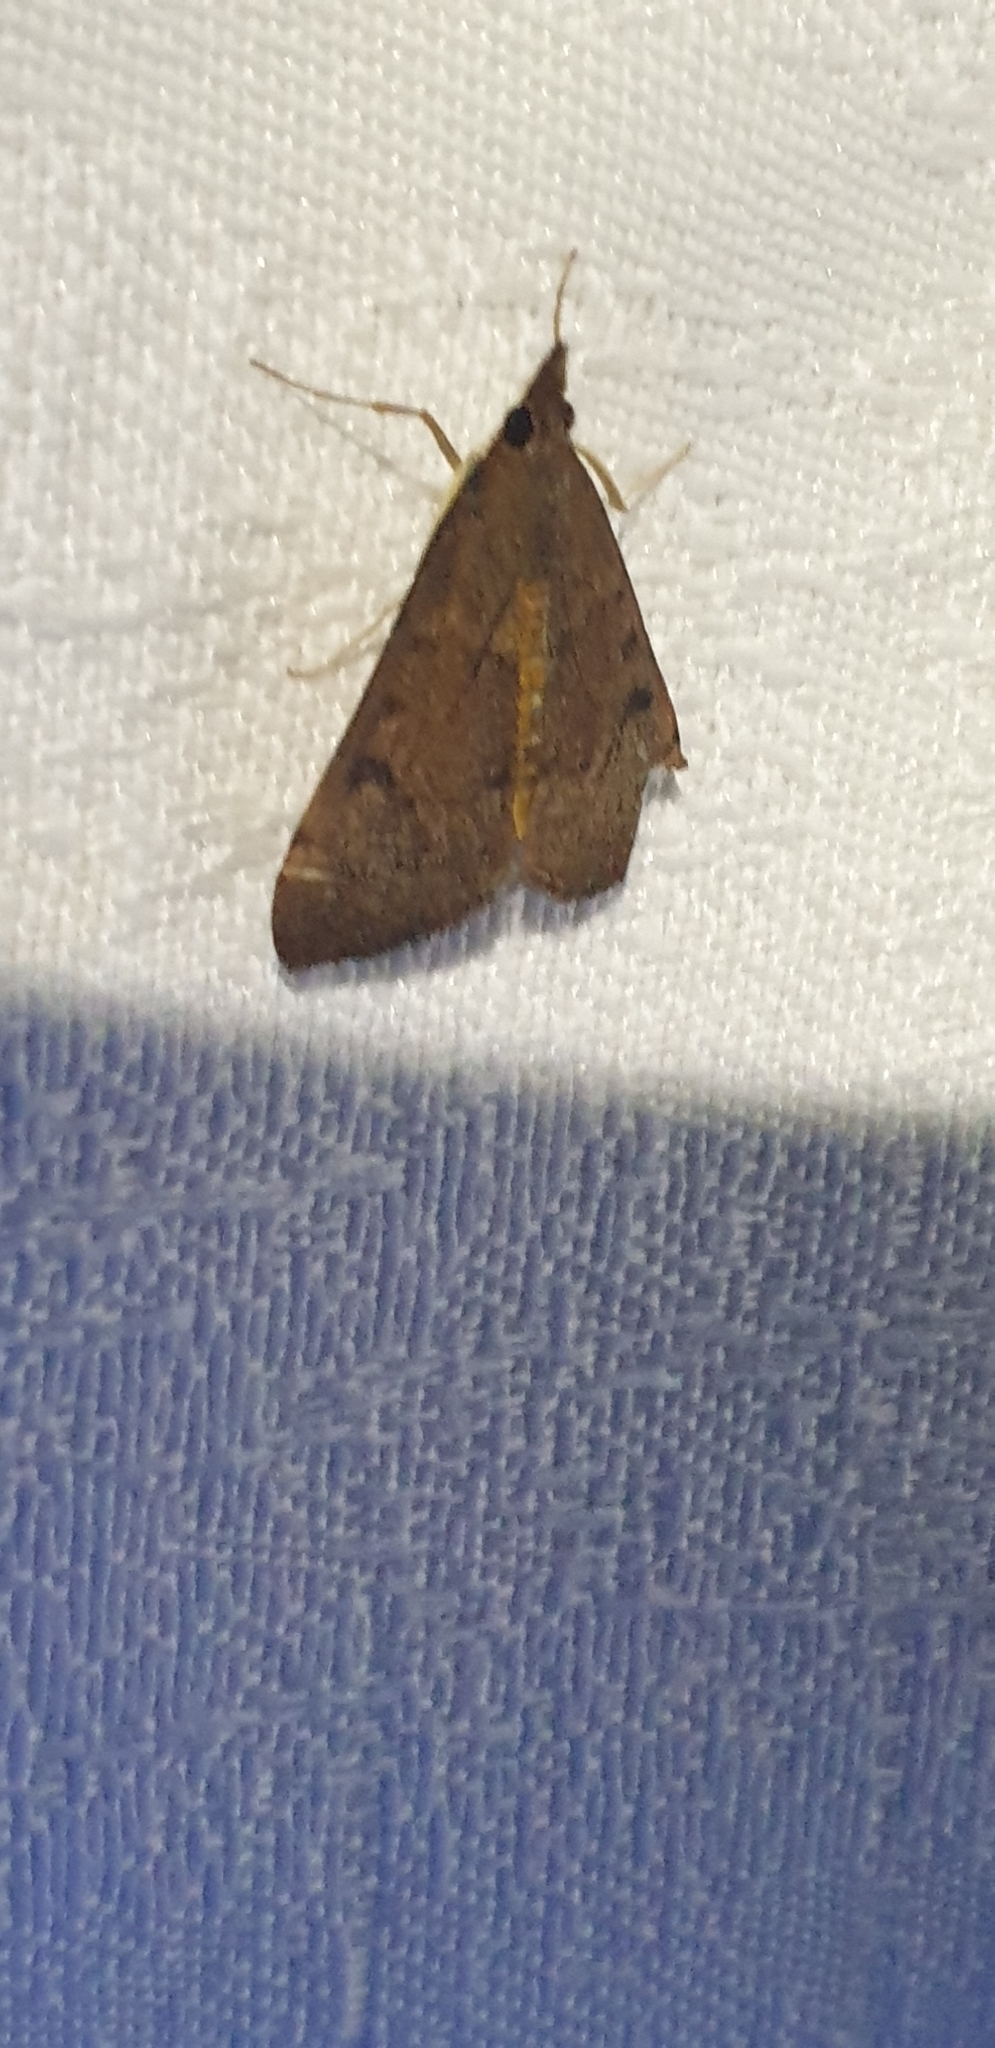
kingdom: Animalia
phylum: Arthropoda
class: Insecta
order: Lepidoptera
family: Crambidae
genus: Uresiphita
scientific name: Uresiphita ornithopteralis
